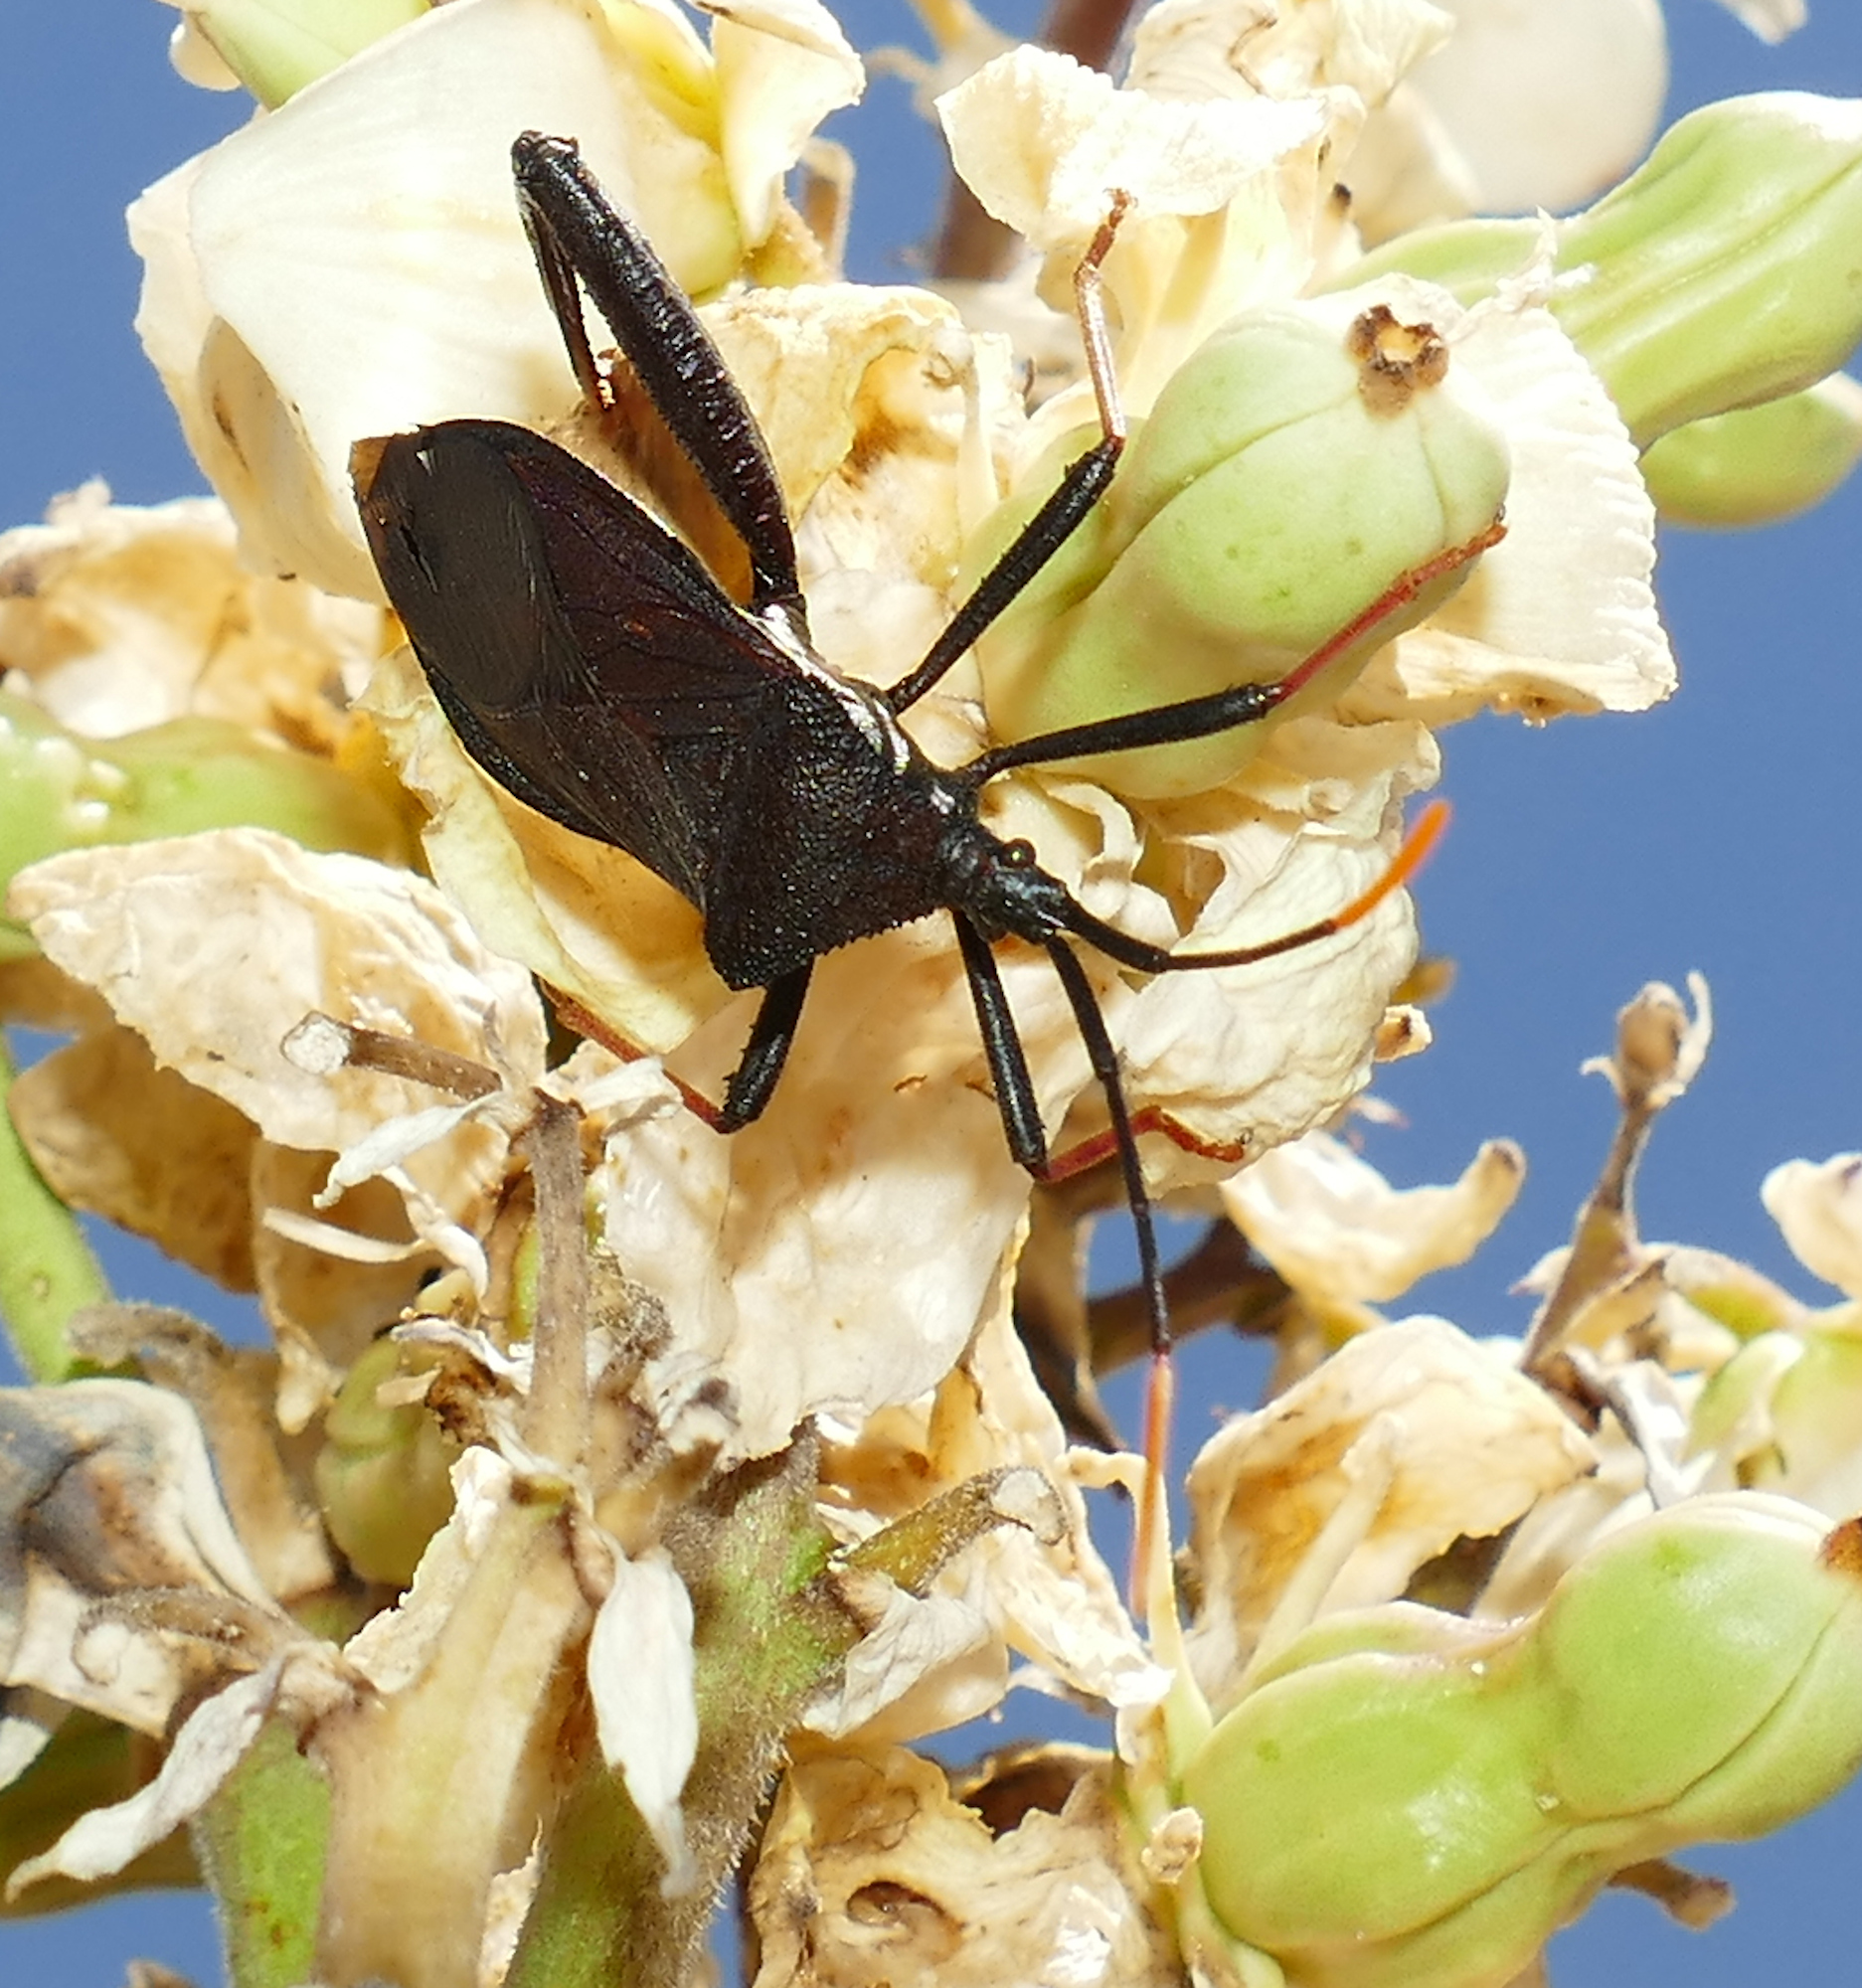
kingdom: Animalia
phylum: Arthropoda
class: Insecta
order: Hemiptera
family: Coreidae
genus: Acanthocephala
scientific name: Acanthocephala thomasi
